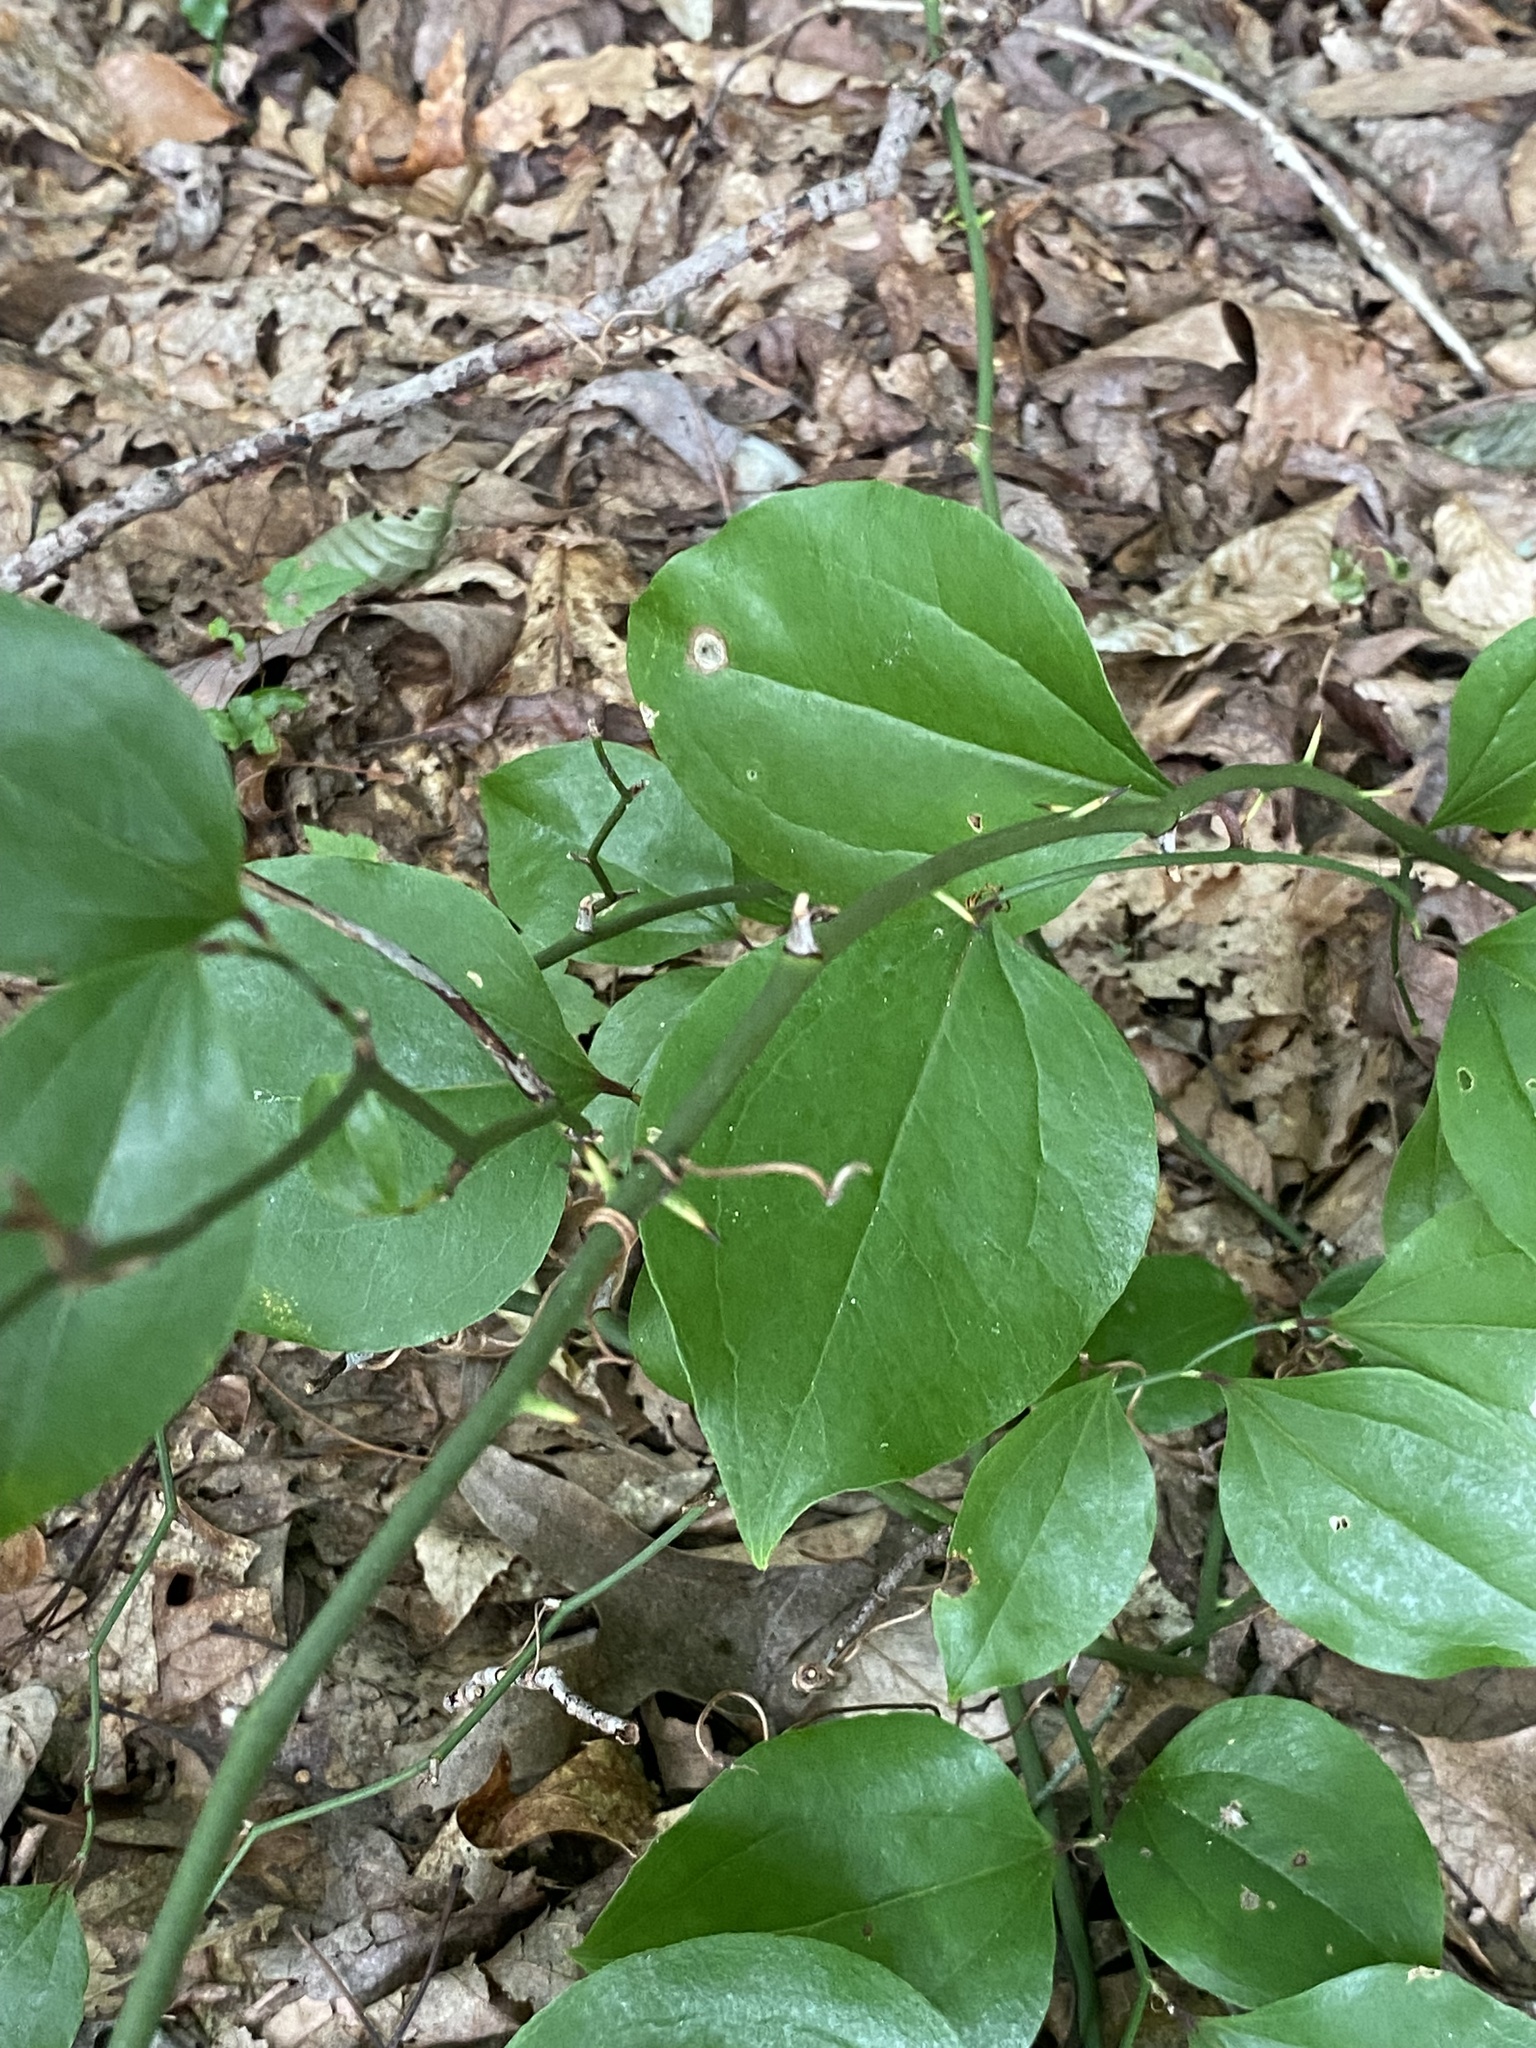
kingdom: Plantae
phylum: Tracheophyta
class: Liliopsida
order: Liliales
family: Smilacaceae
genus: Smilax
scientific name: Smilax rotundifolia
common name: Bullbriar
